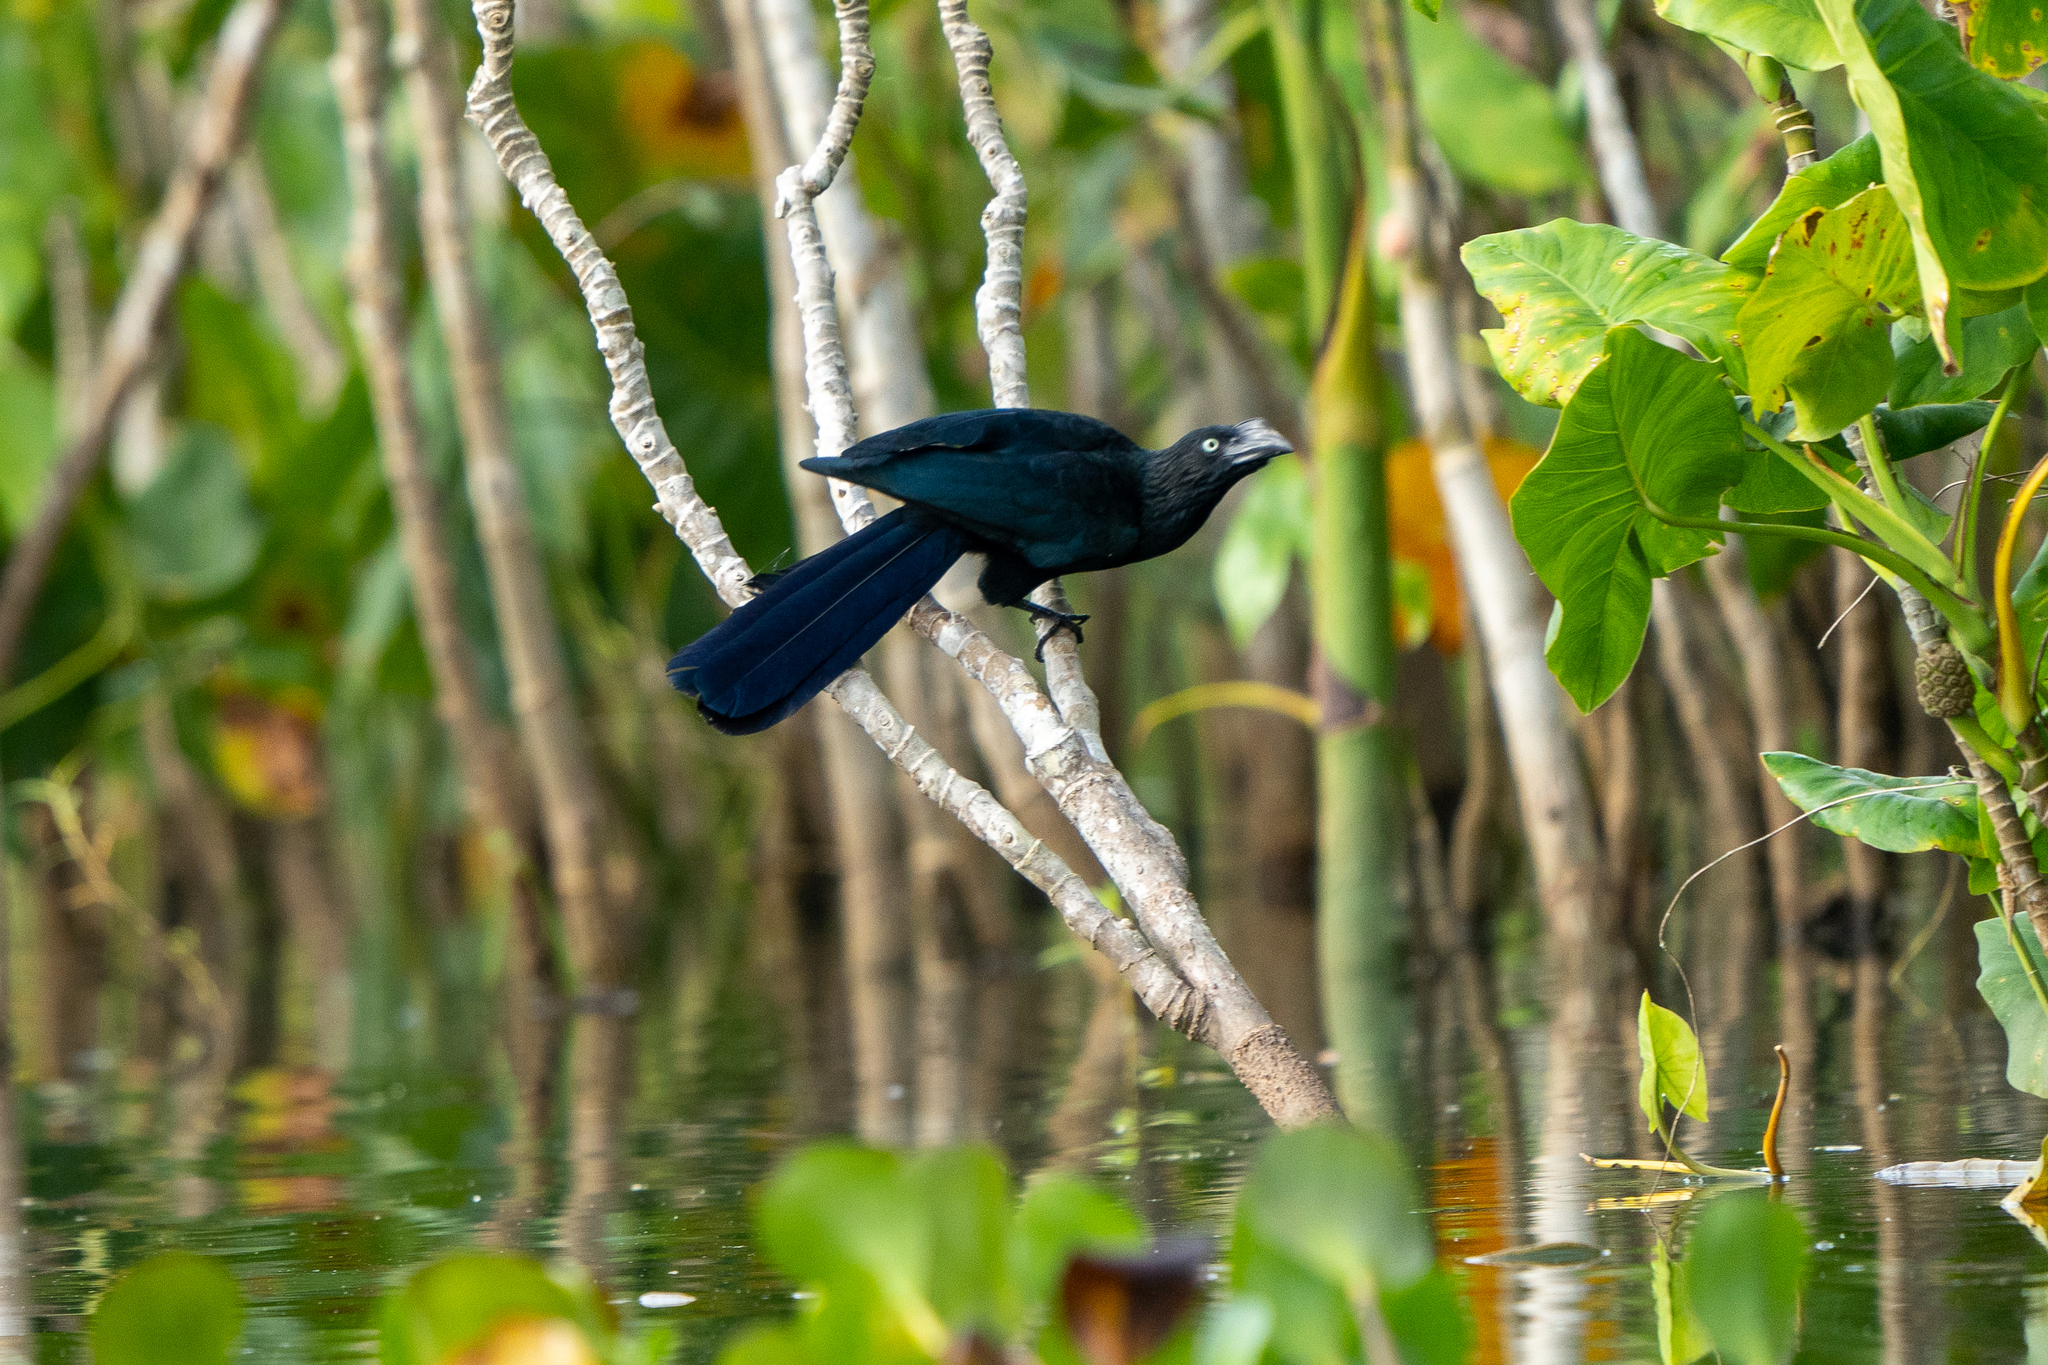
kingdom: Animalia
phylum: Chordata
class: Aves
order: Cuculiformes
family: Cuculidae
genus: Crotophaga
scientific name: Crotophaga major
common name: Greater ani
